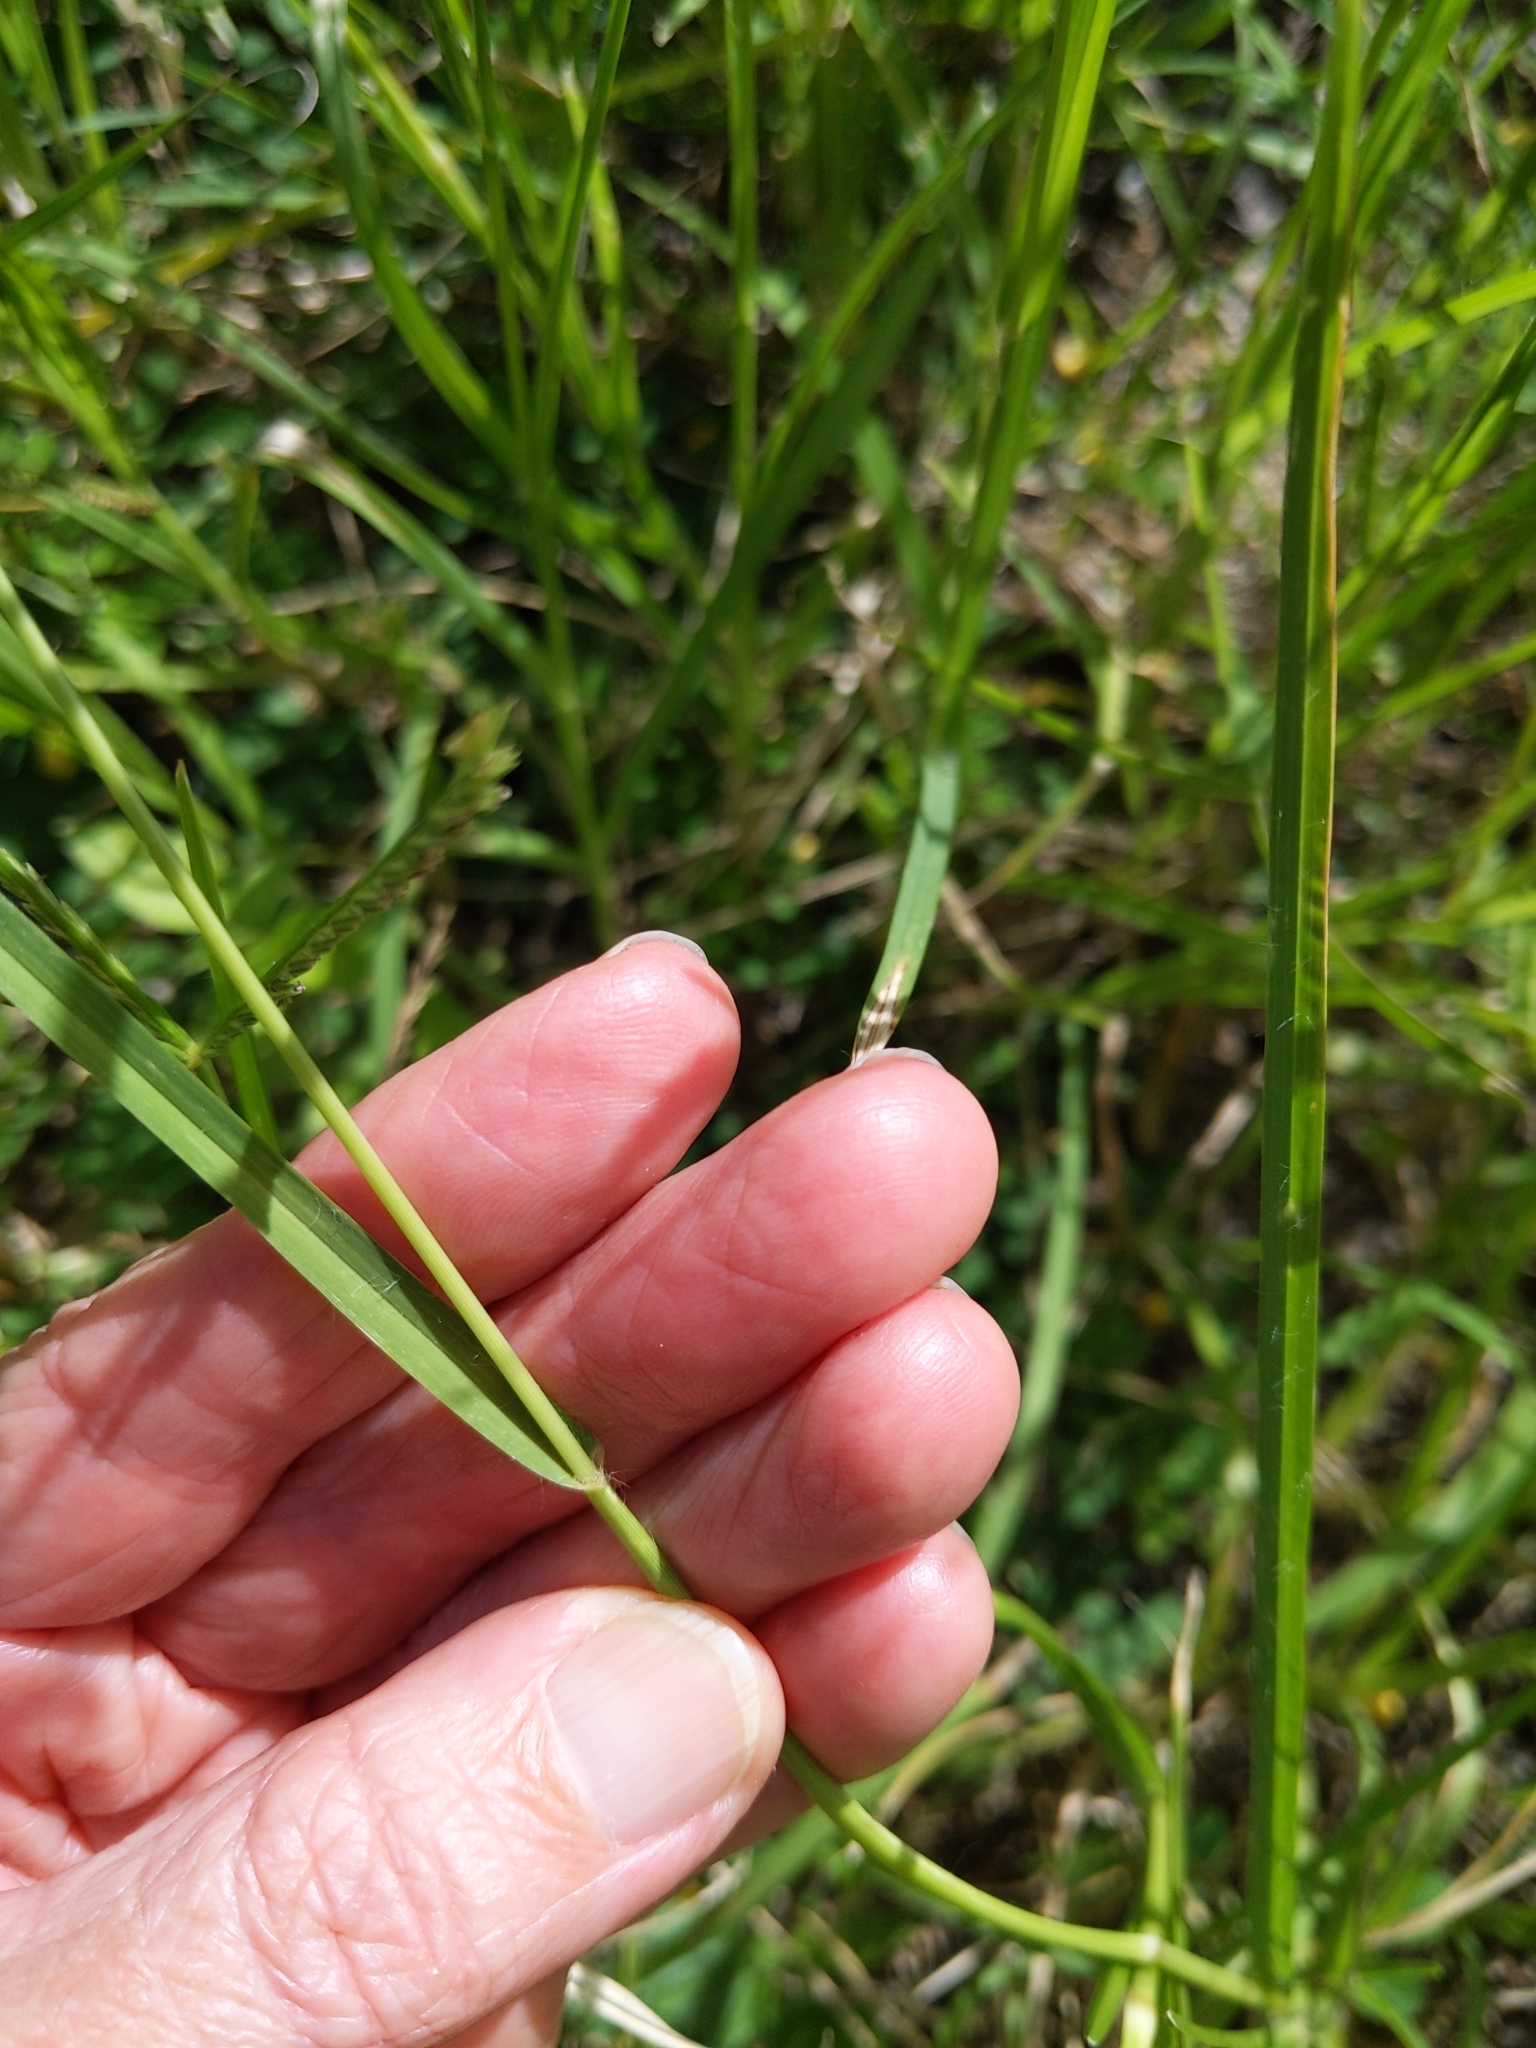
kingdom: Plantae
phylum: Tracheophyta
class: Liliopsida
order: Poales
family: Poaceae
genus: Eleusine
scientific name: Eleusine indica
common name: Yard-grass
